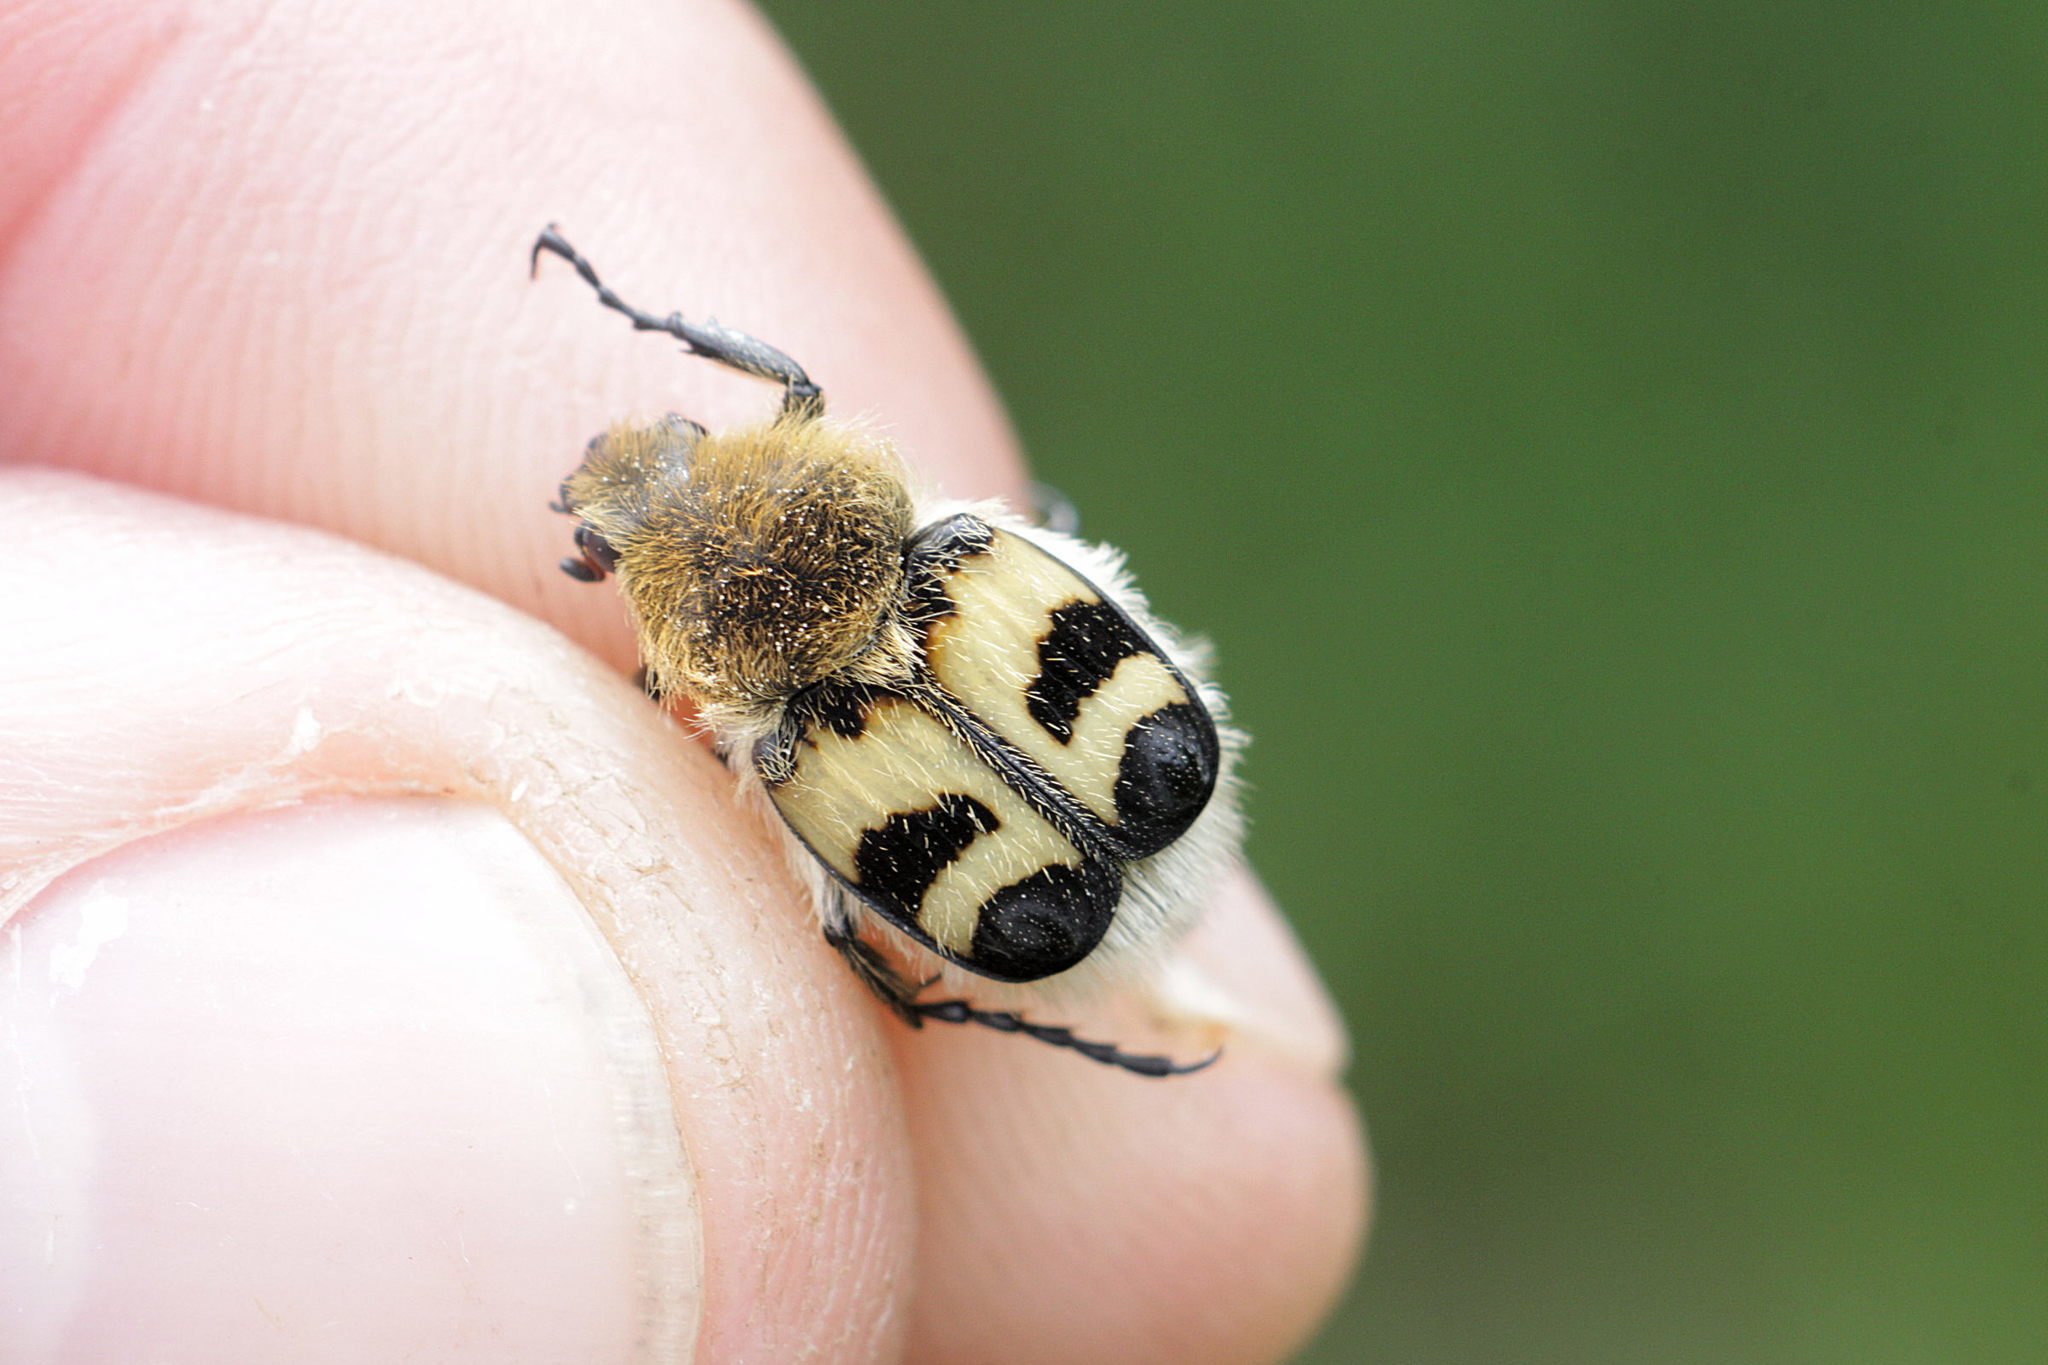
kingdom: Animalia
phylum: Arthropoda
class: Insecta
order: Coleoptera
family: Scarabaeidae
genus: Trichius
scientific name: Trichius fasciatus
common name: Bee beetle
